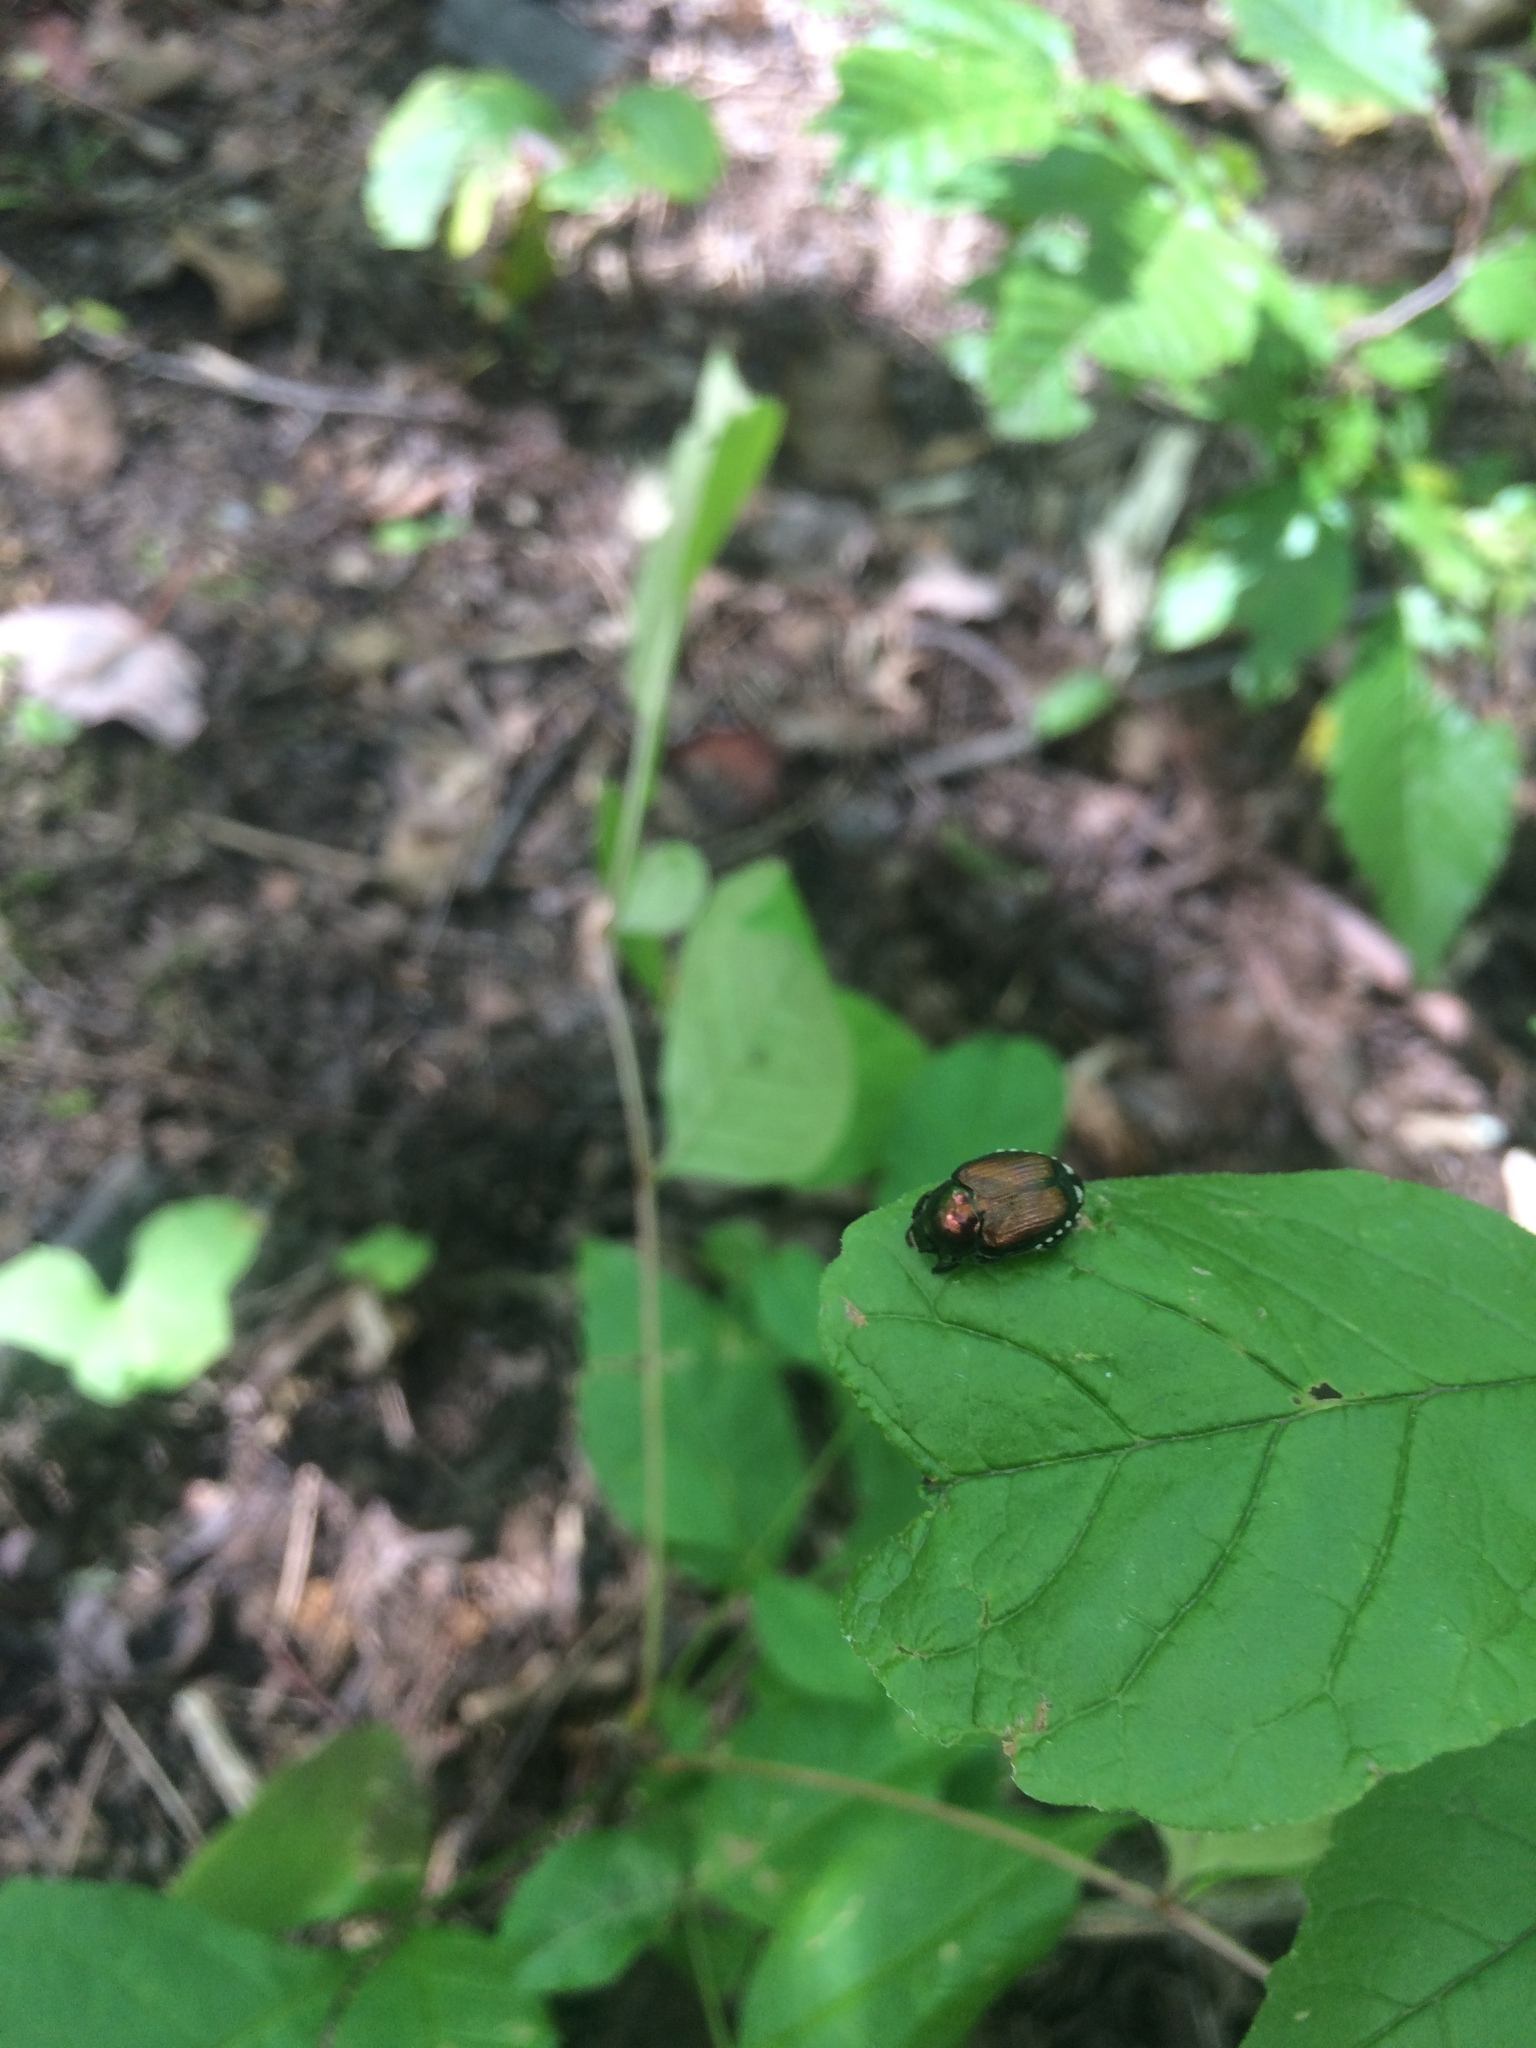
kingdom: Animalia
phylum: Arthropoda
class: Insecta
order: Coleoptera
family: Scarabaeidae
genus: Popillia
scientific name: Popillia japonica
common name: Japanese beetle
